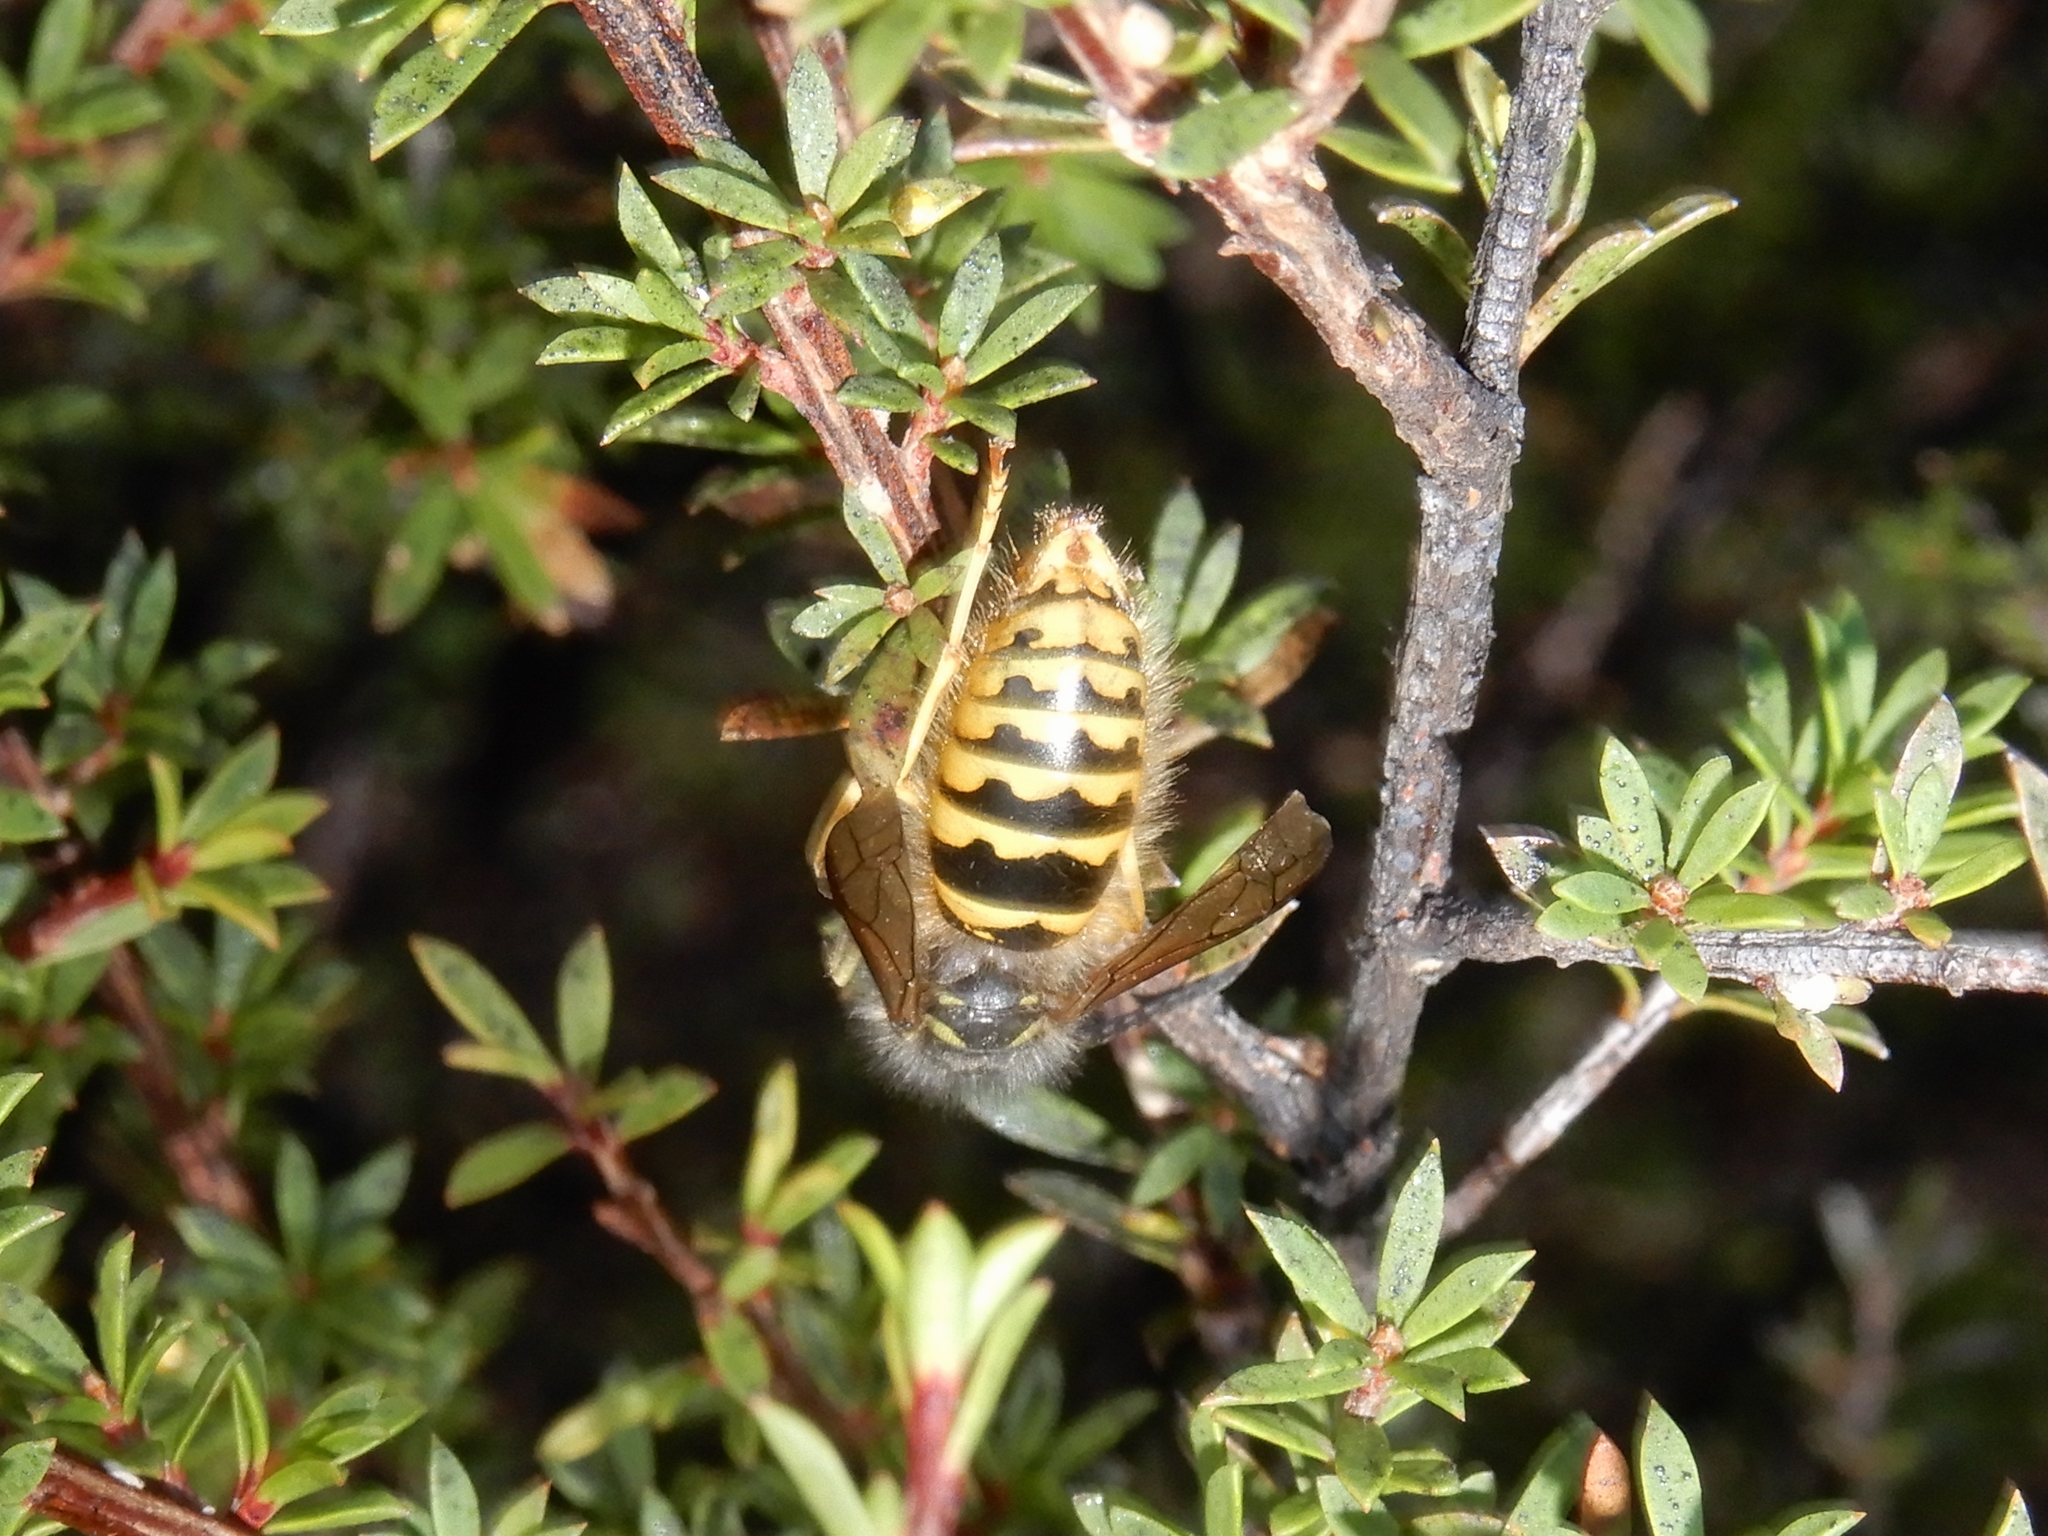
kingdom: Animalia
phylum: Arthropoda
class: Insecta
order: Hymenoptera
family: Vespidae
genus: Vespula
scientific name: Vespula vulgaris
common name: Common wasp
